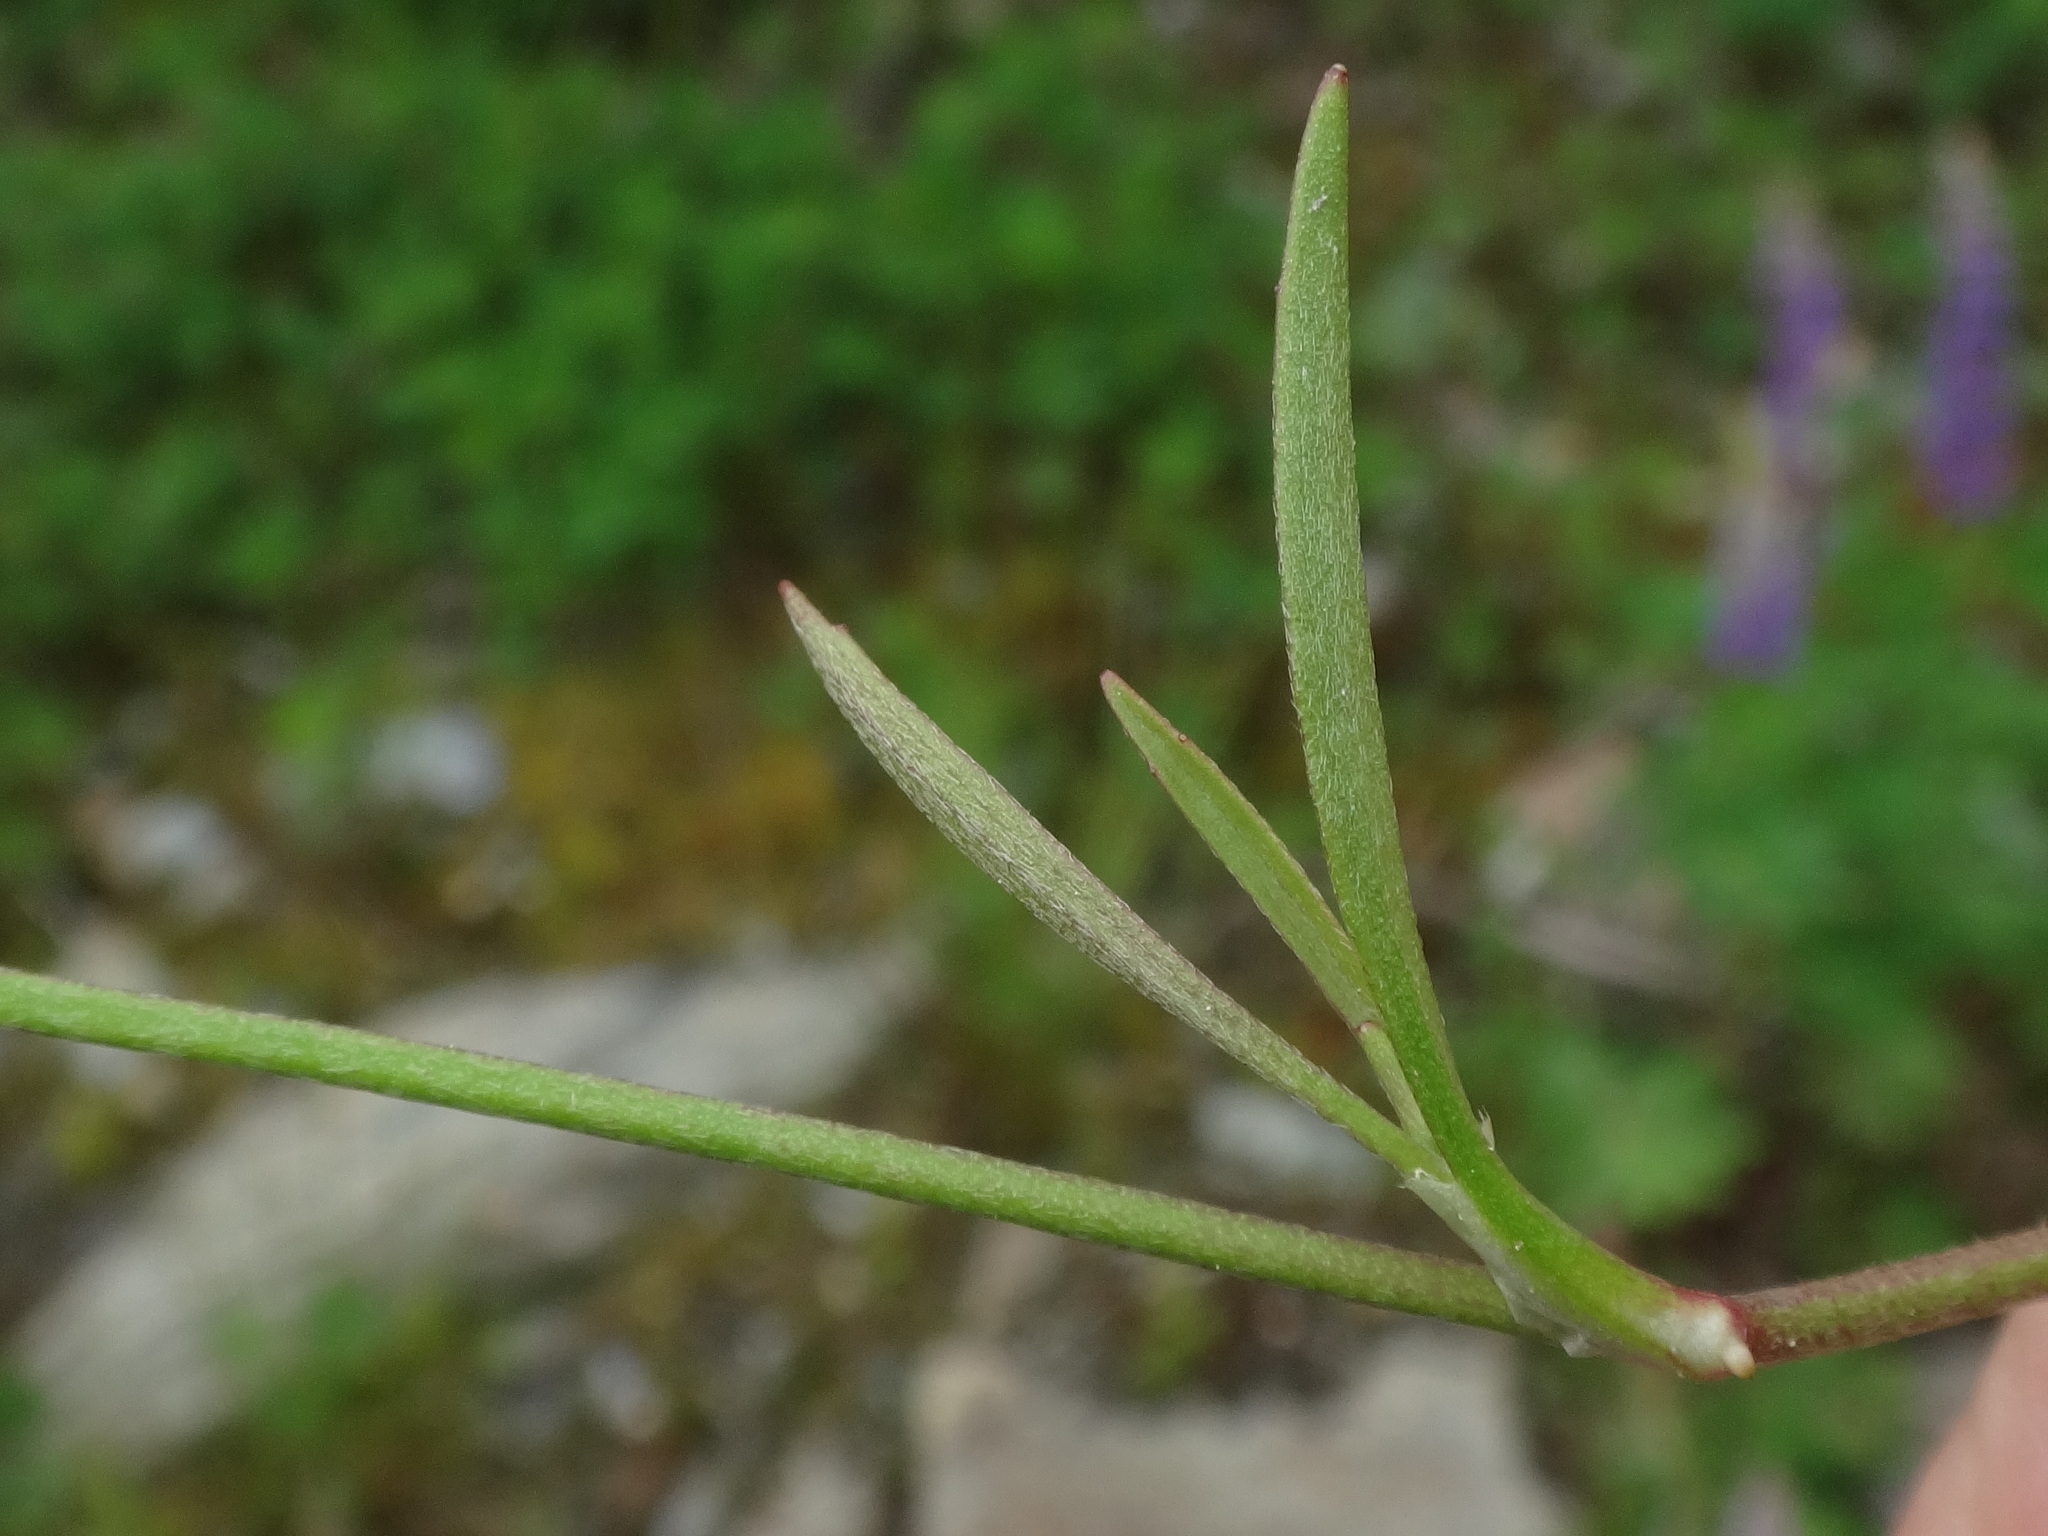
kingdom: Plantae
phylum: Tracheophyta
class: Magnoliopsida
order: Ranunculales
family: Ranunculaceae
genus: Ranunculus
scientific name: Ranunculus flammula
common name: Lesser spearwort
